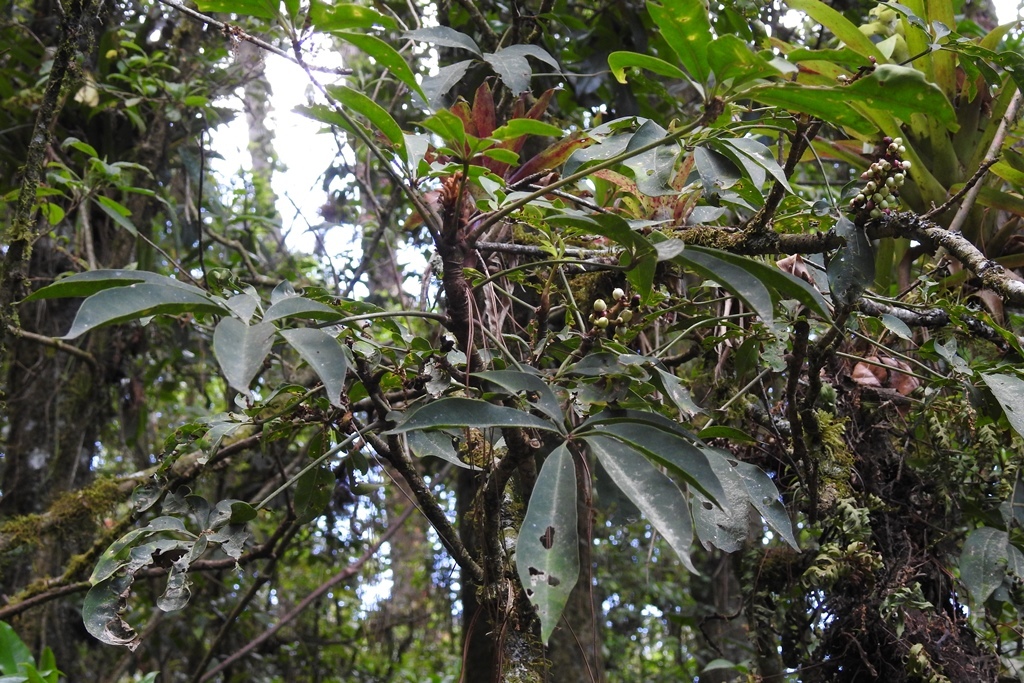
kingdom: Plantae
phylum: Tracheophyta
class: Magnoliopsida
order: Apiales
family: Araliaceae
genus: Oreopanax
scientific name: Oreopanax xalapensis
